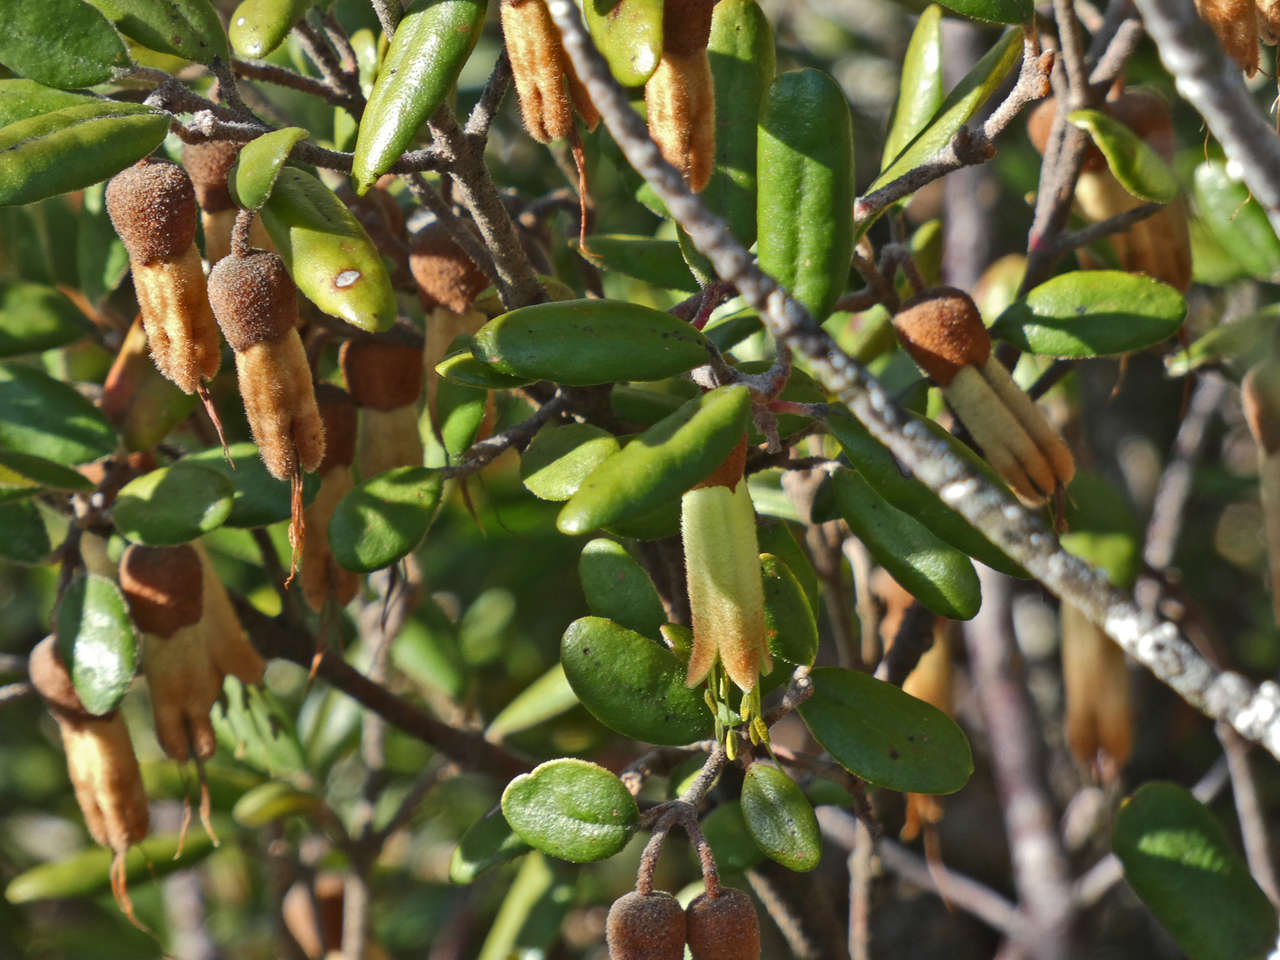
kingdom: Plantae
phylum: Tracheophyta
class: Magnoliopsida
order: Sapindales
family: Rutaceae
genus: Correa
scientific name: Correa lawrenceana
